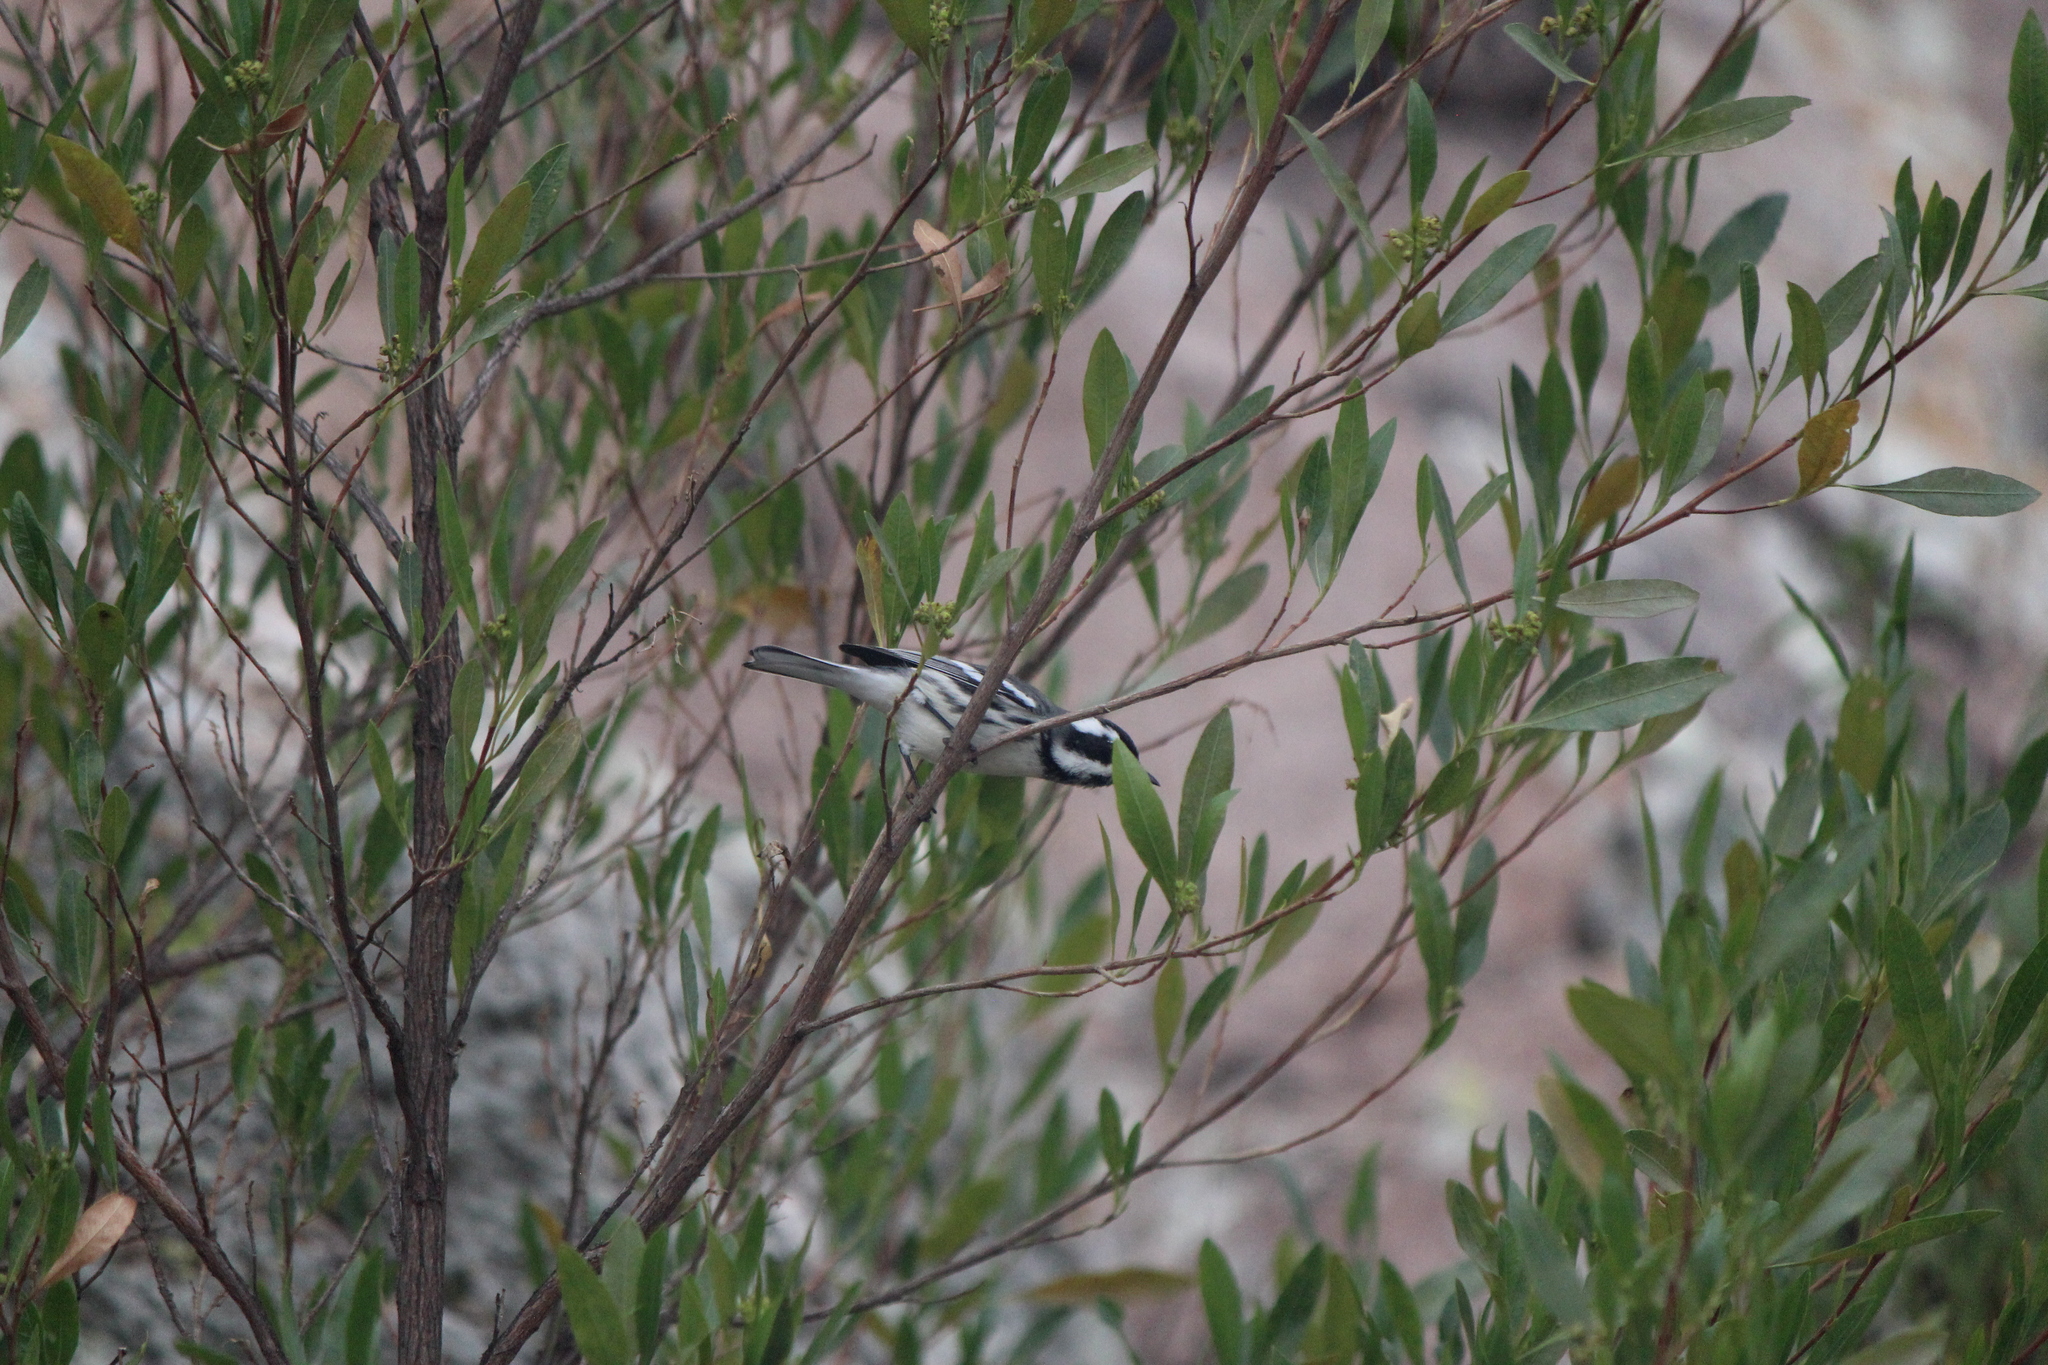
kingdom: Animalia
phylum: Chordata
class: Aves
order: Passeriformes
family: Parulidae
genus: Setophaga
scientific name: Setophaga nigrescens
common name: Black-throated gray warbler
